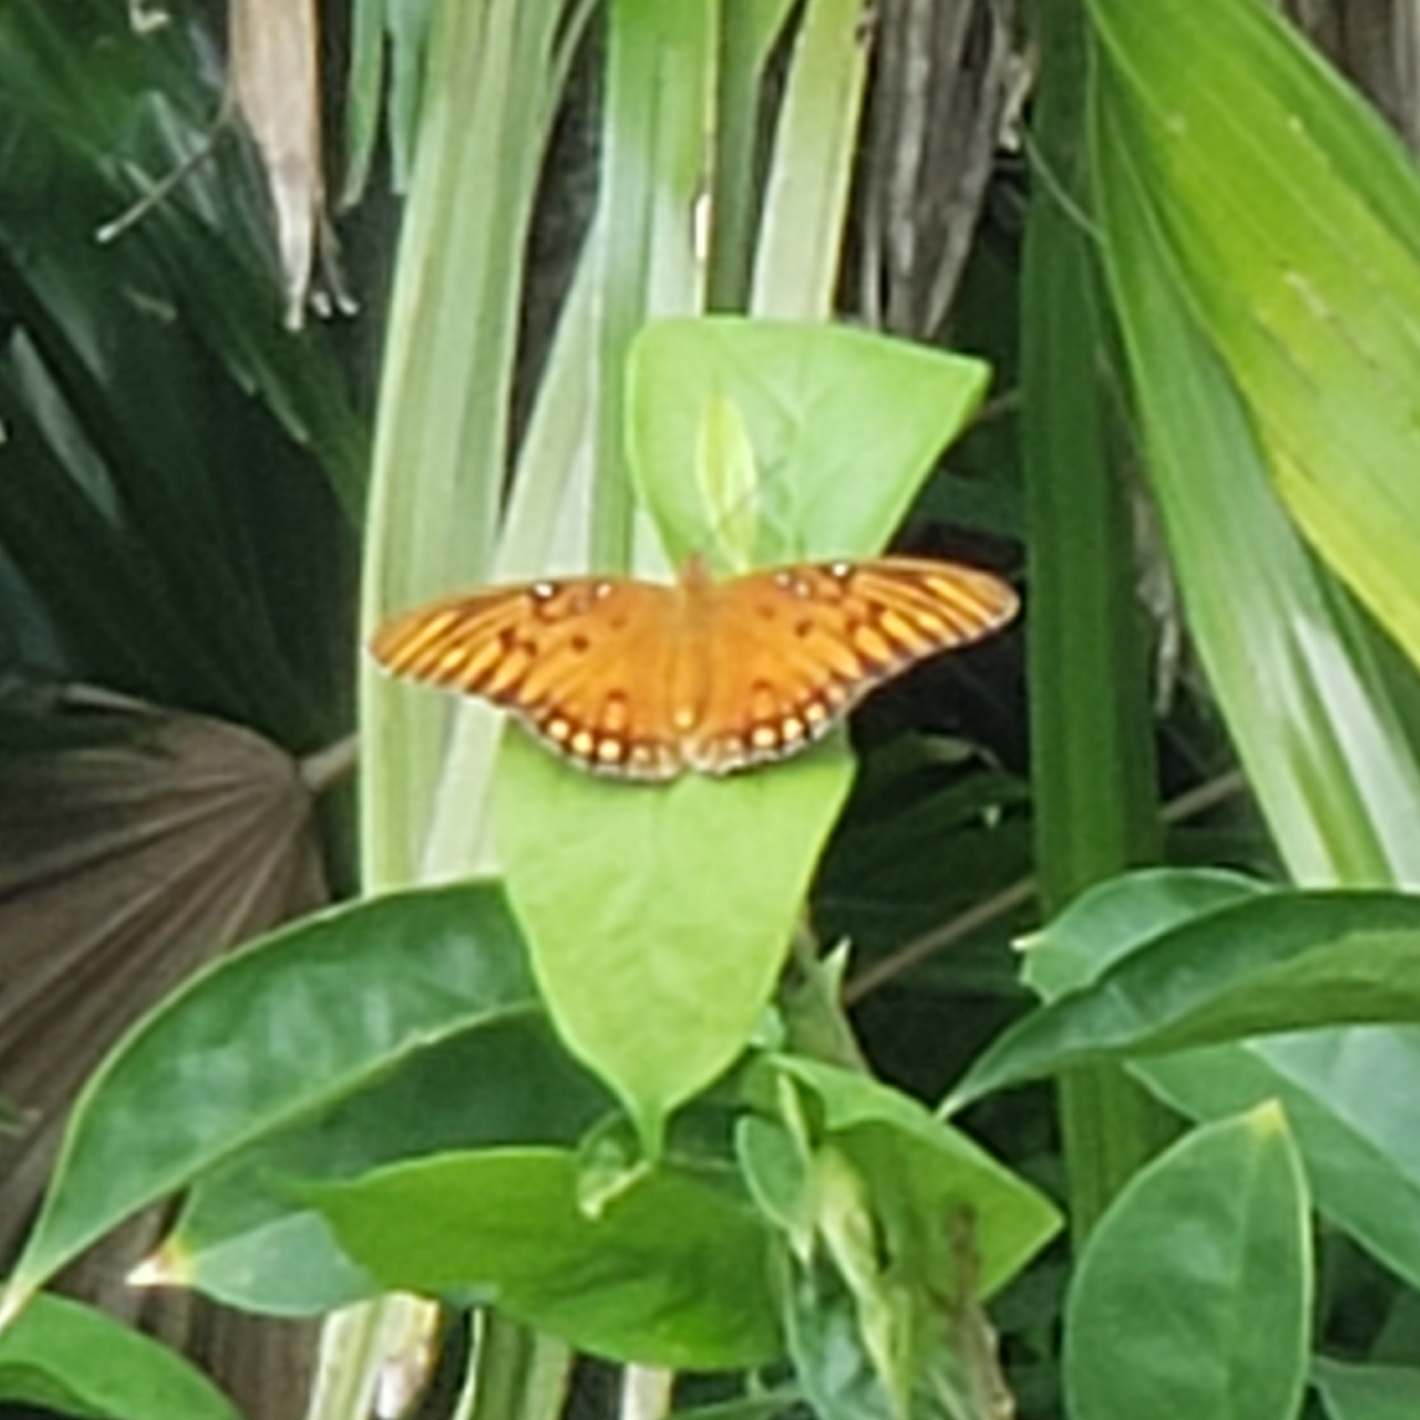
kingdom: Animalia
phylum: Arthropoda
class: Insecta
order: Lepidoptera
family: Nymphalidae
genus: Dione
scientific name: Dione vanillae
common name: Gulf fritillary
